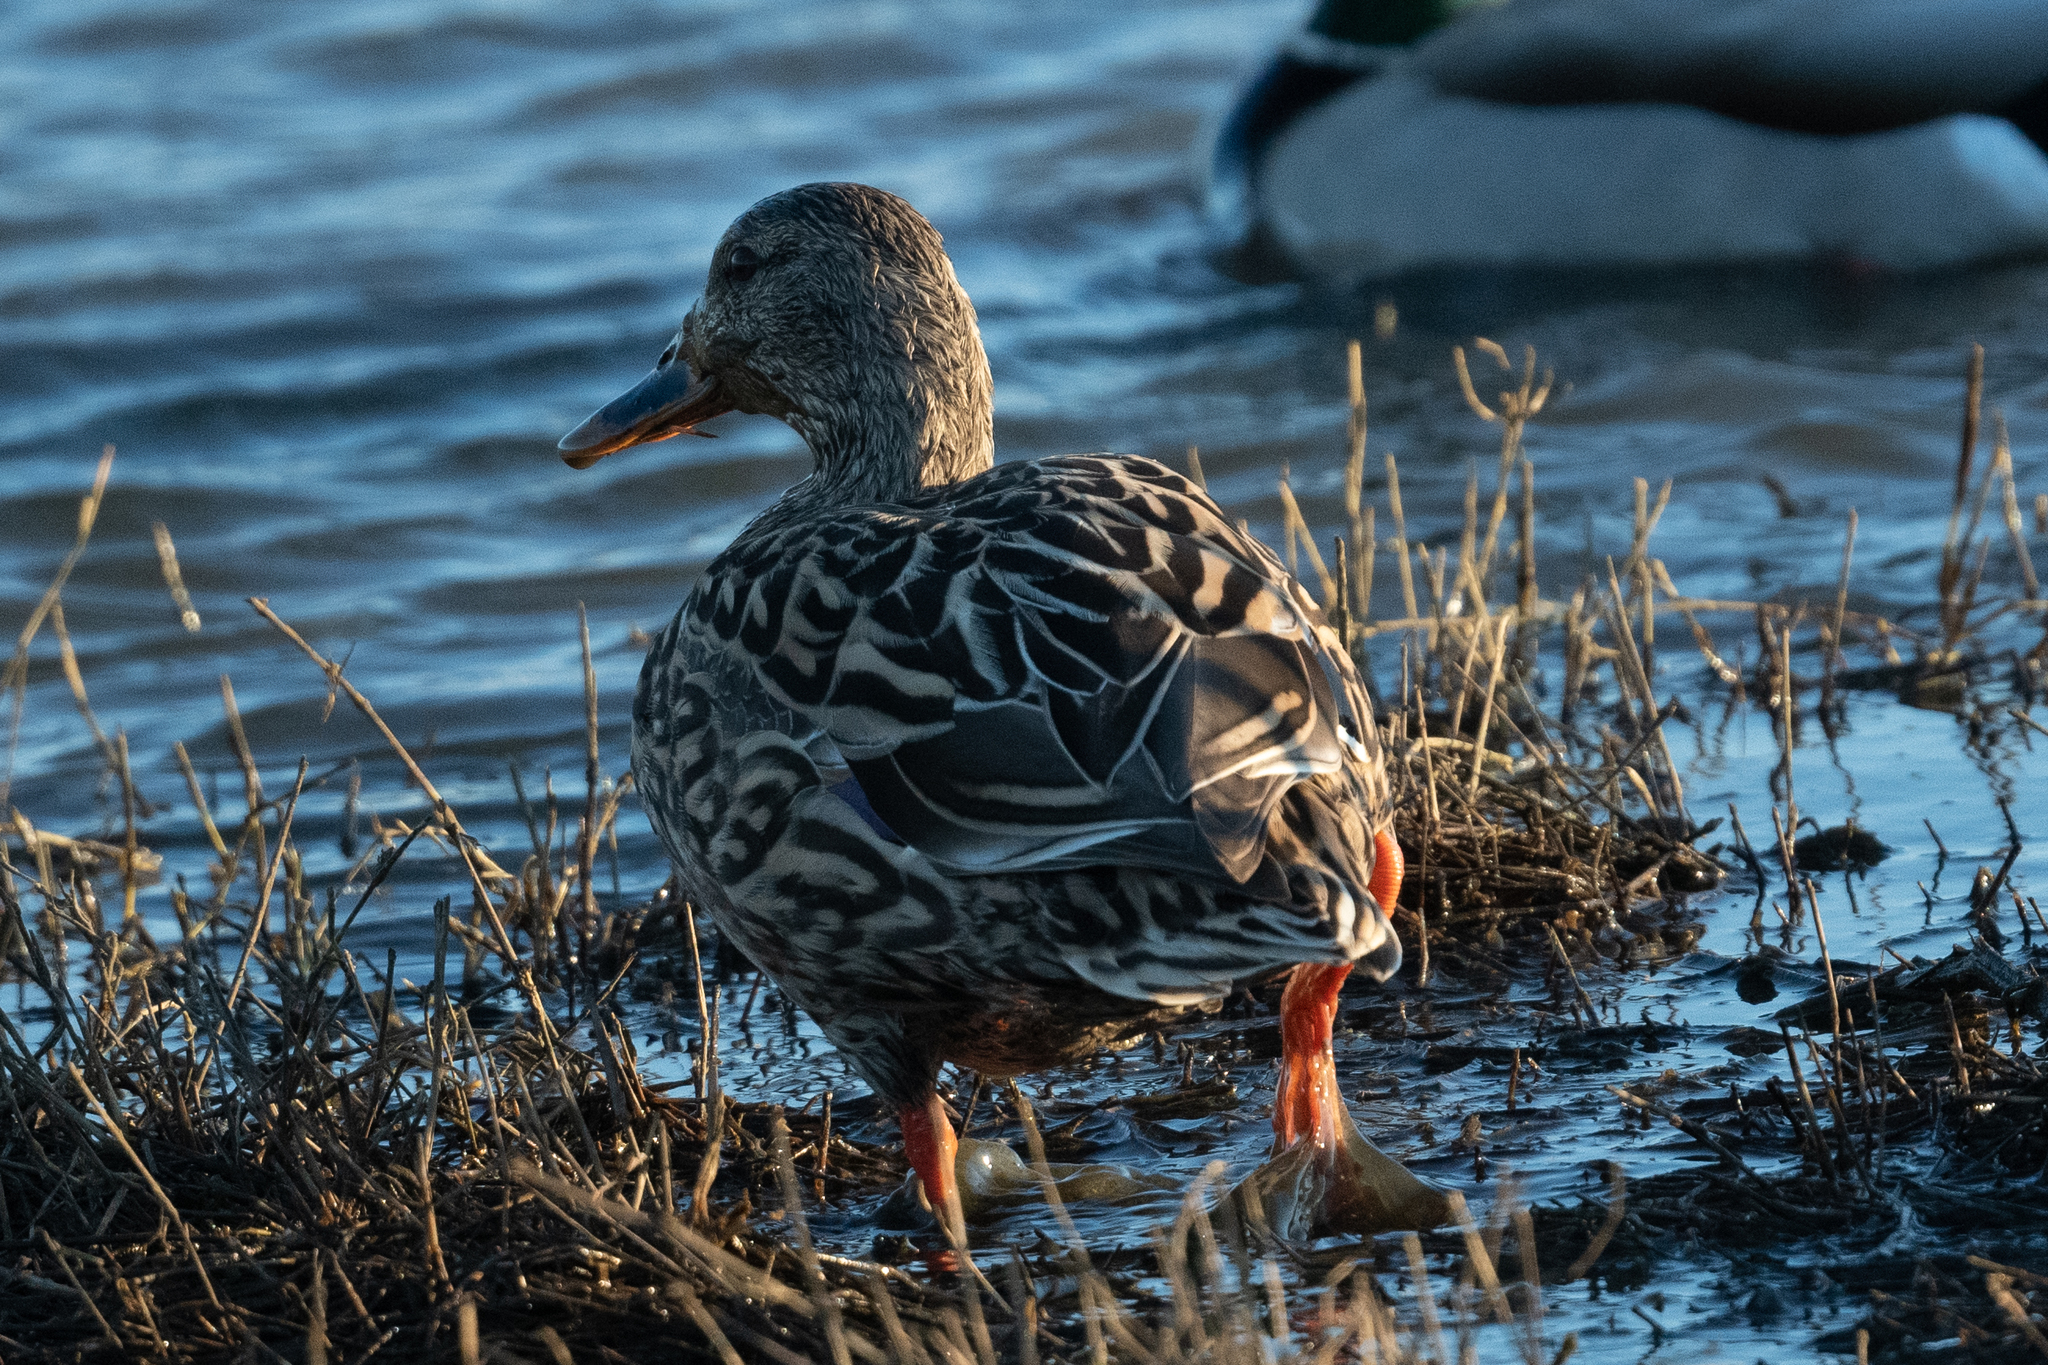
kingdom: Animalia
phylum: Chordata
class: Aves
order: Anseriformes
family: Anatidae
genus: Anas
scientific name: Anas platyrhynchos
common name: Mallard
